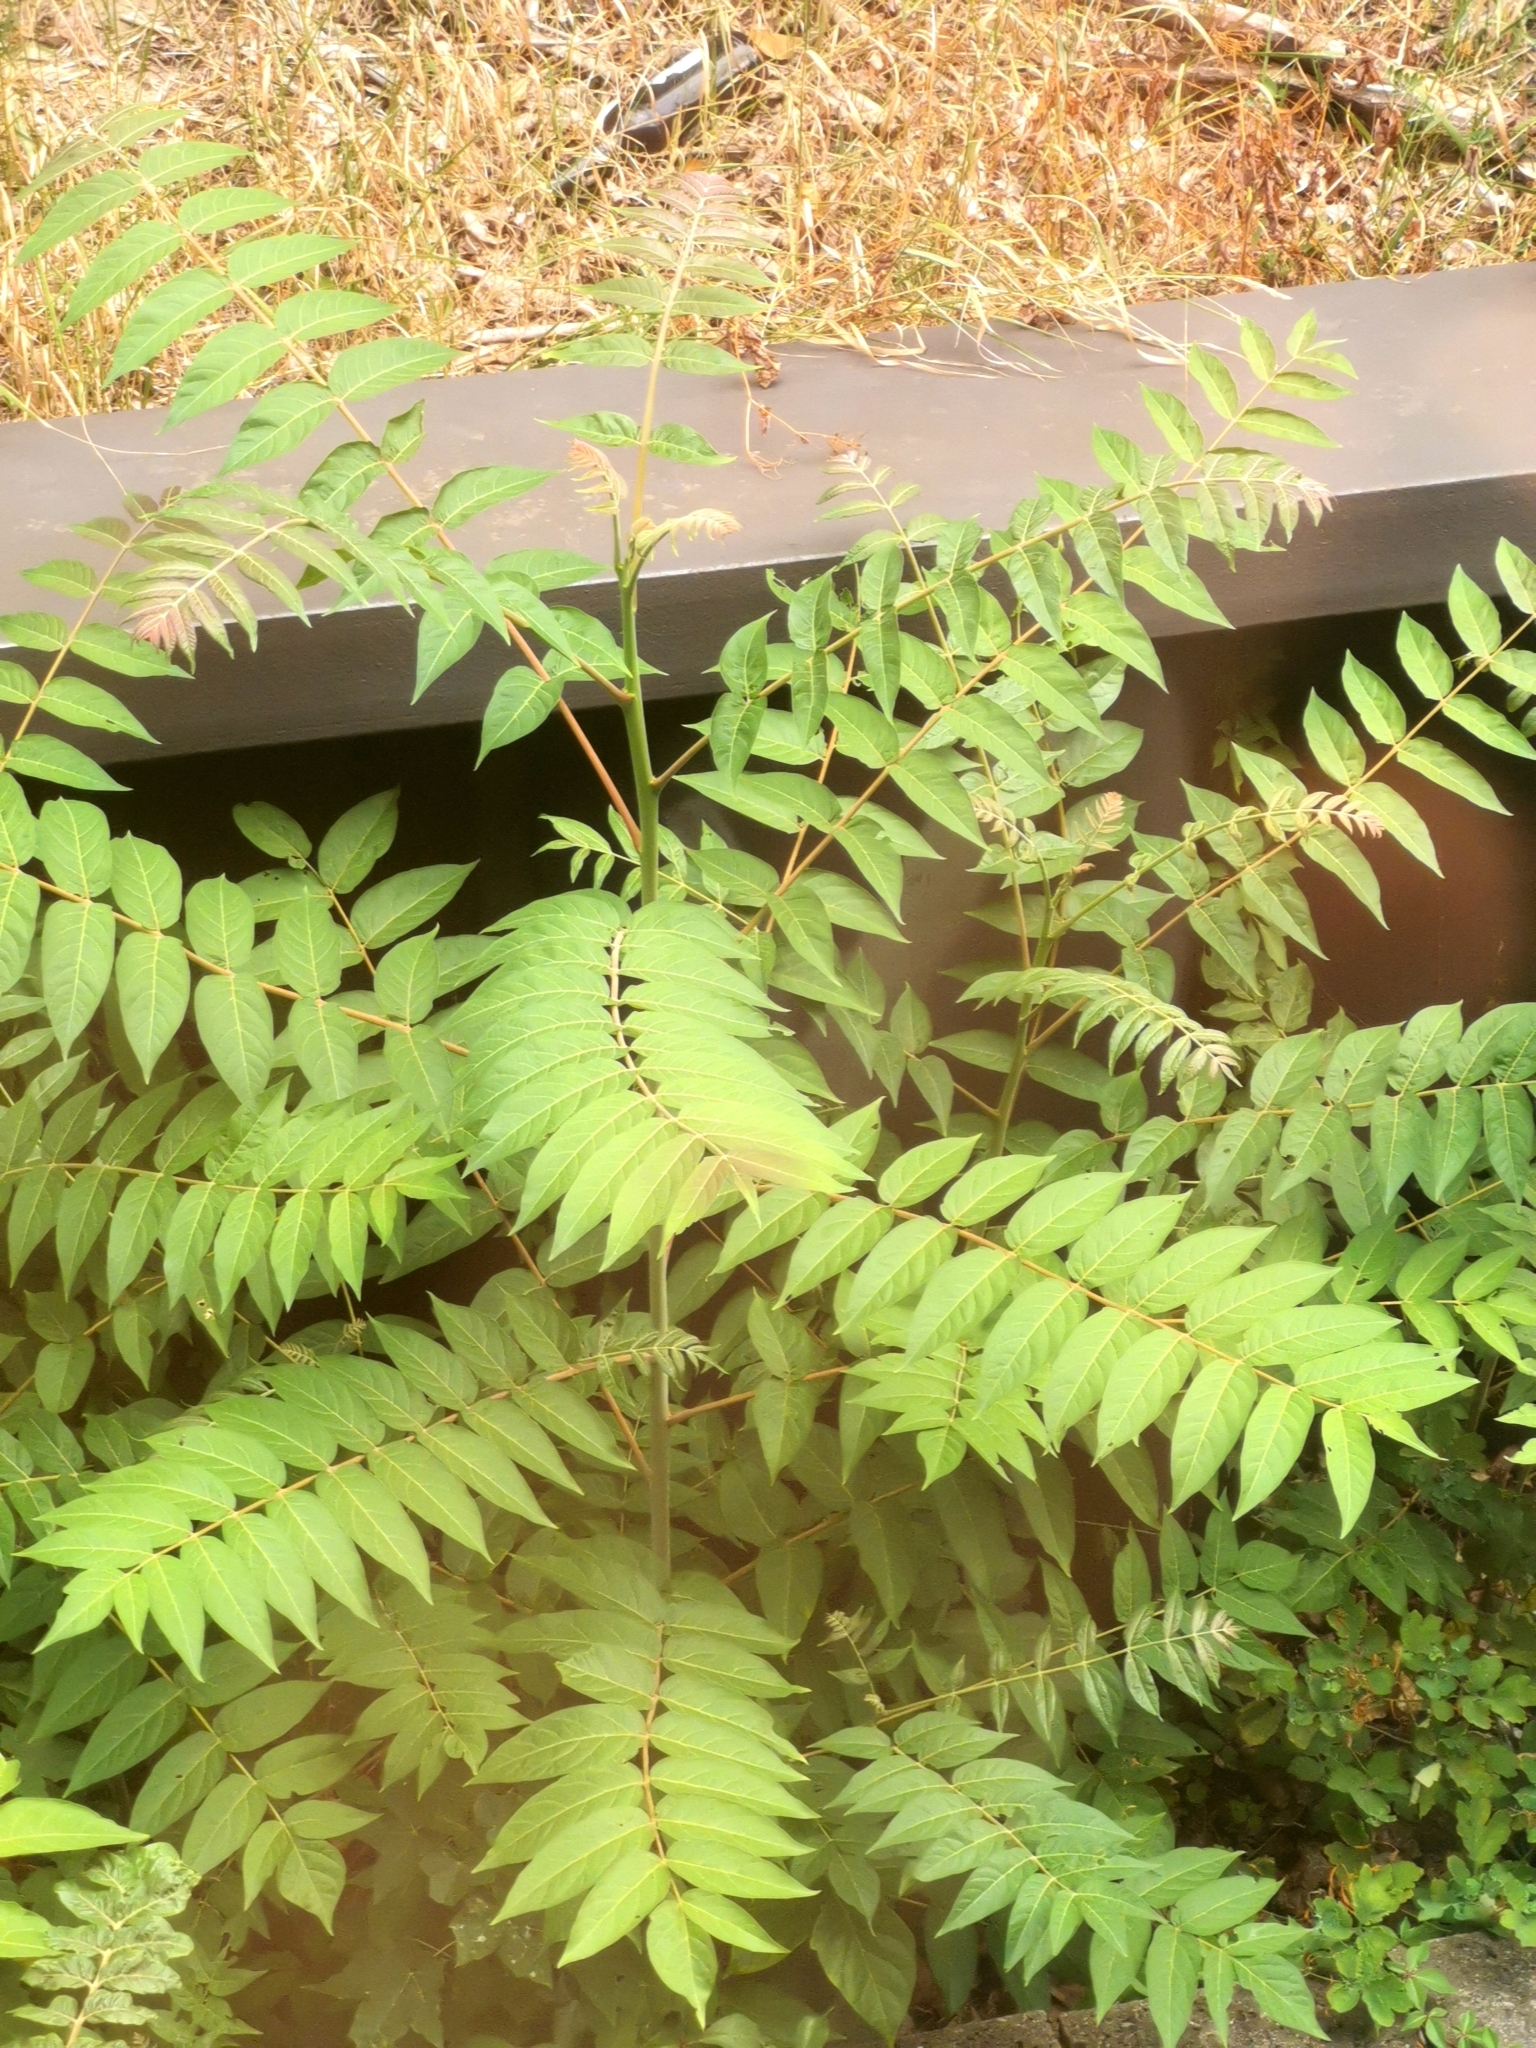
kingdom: Plantae
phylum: Tracheophyta
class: Magnoliopsida
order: Sapindales
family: Simaroubaceae
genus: Ailanthus
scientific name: Ailanthus altissima
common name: Tree-of-heaven
